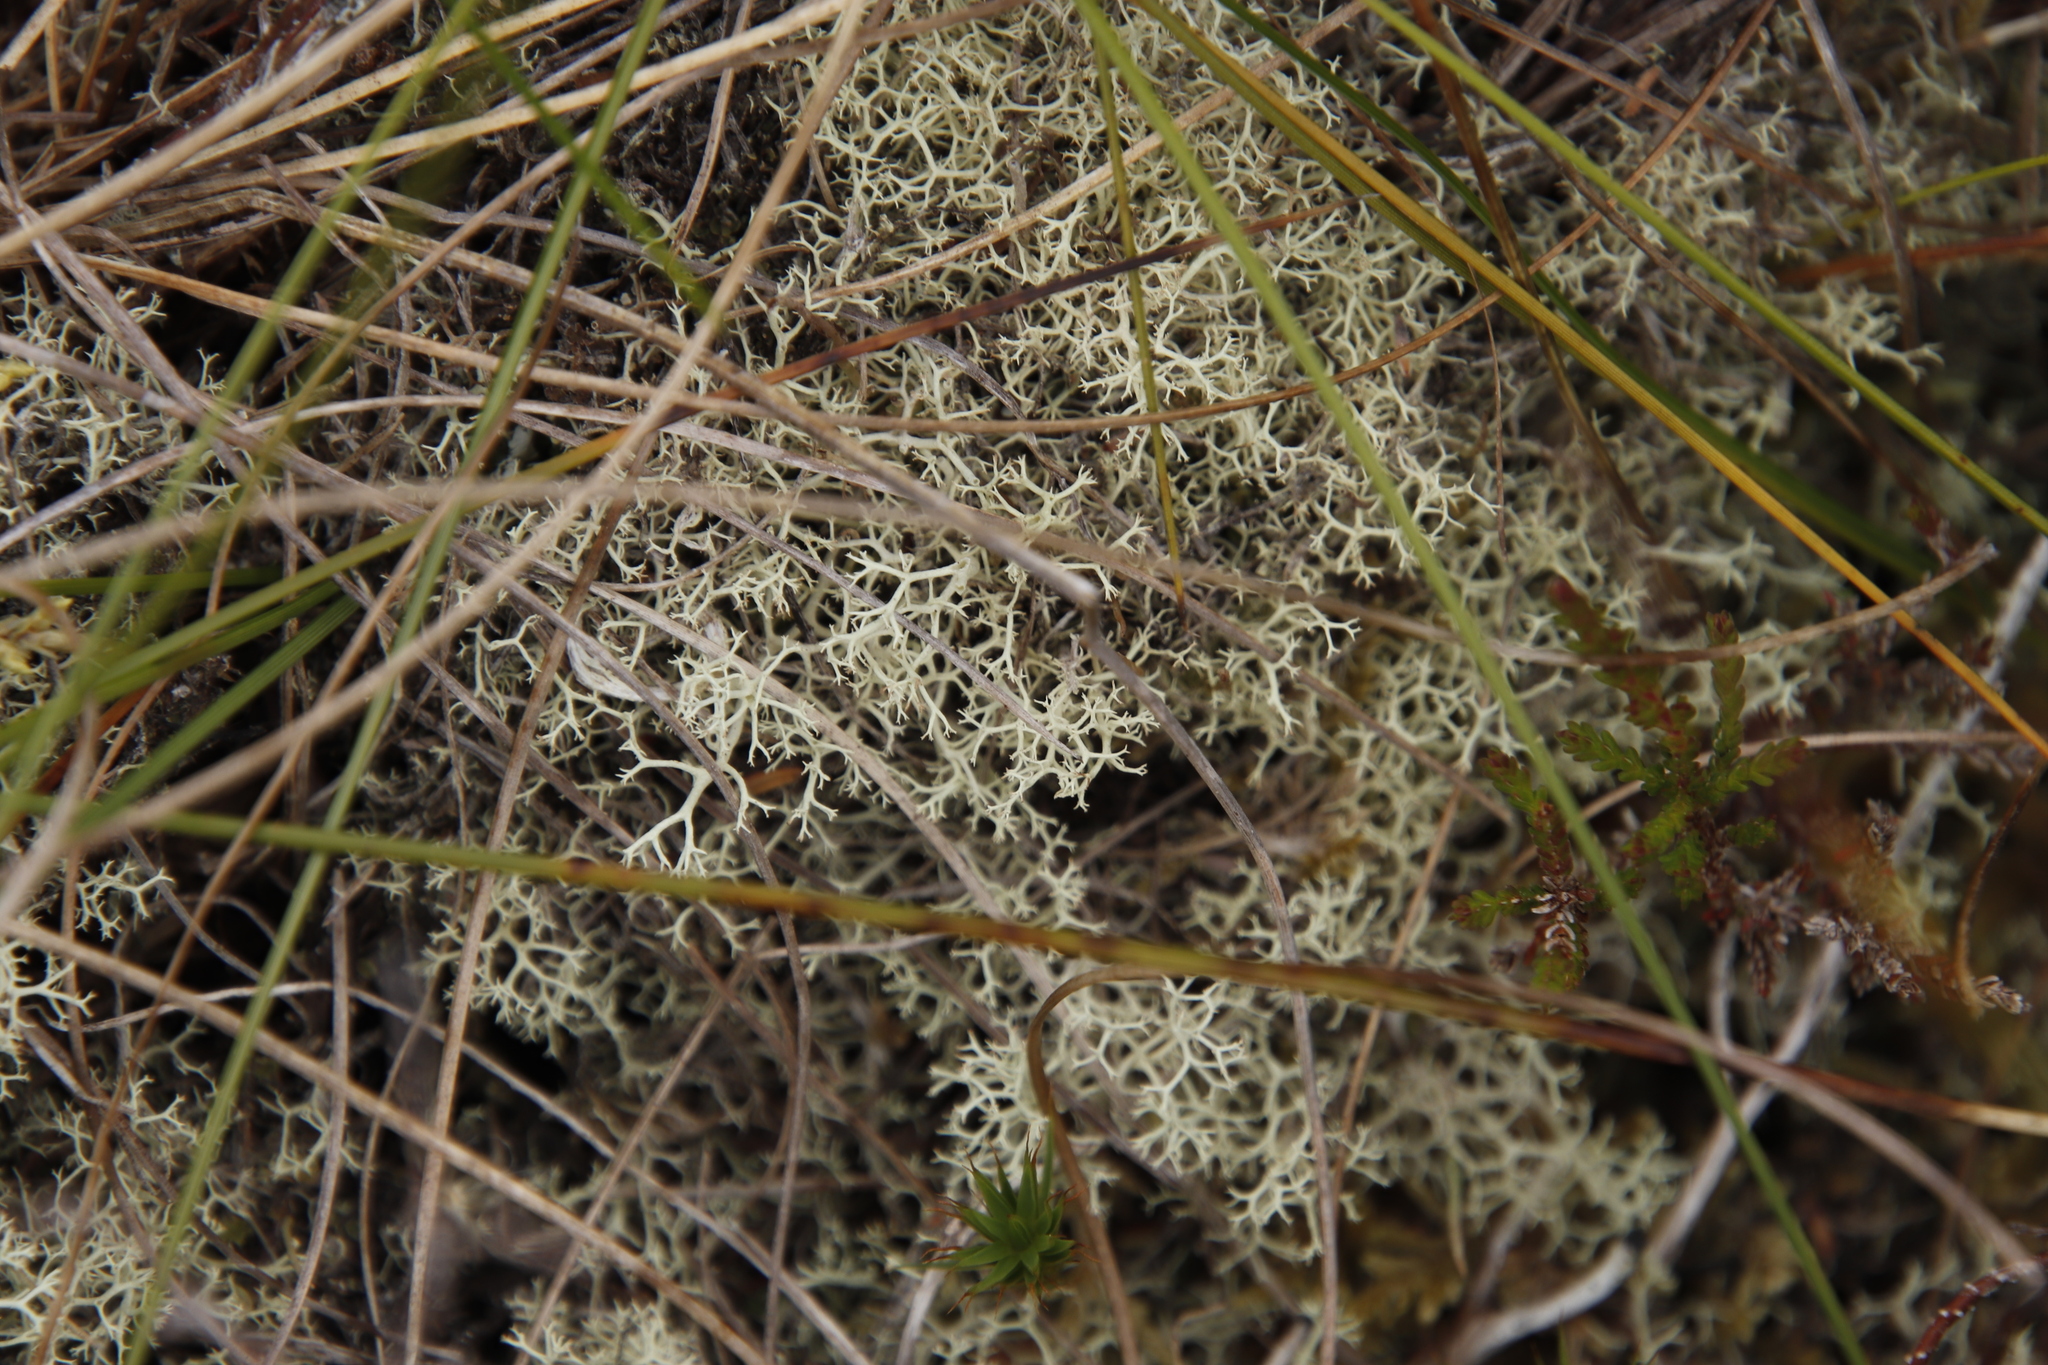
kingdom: Fungi
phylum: Ascomycota
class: Lecanoromycetes
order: Lecanorales
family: Cladoniaceae
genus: Cladonia
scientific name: Cladonia portentosa
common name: Reindeer lichen
